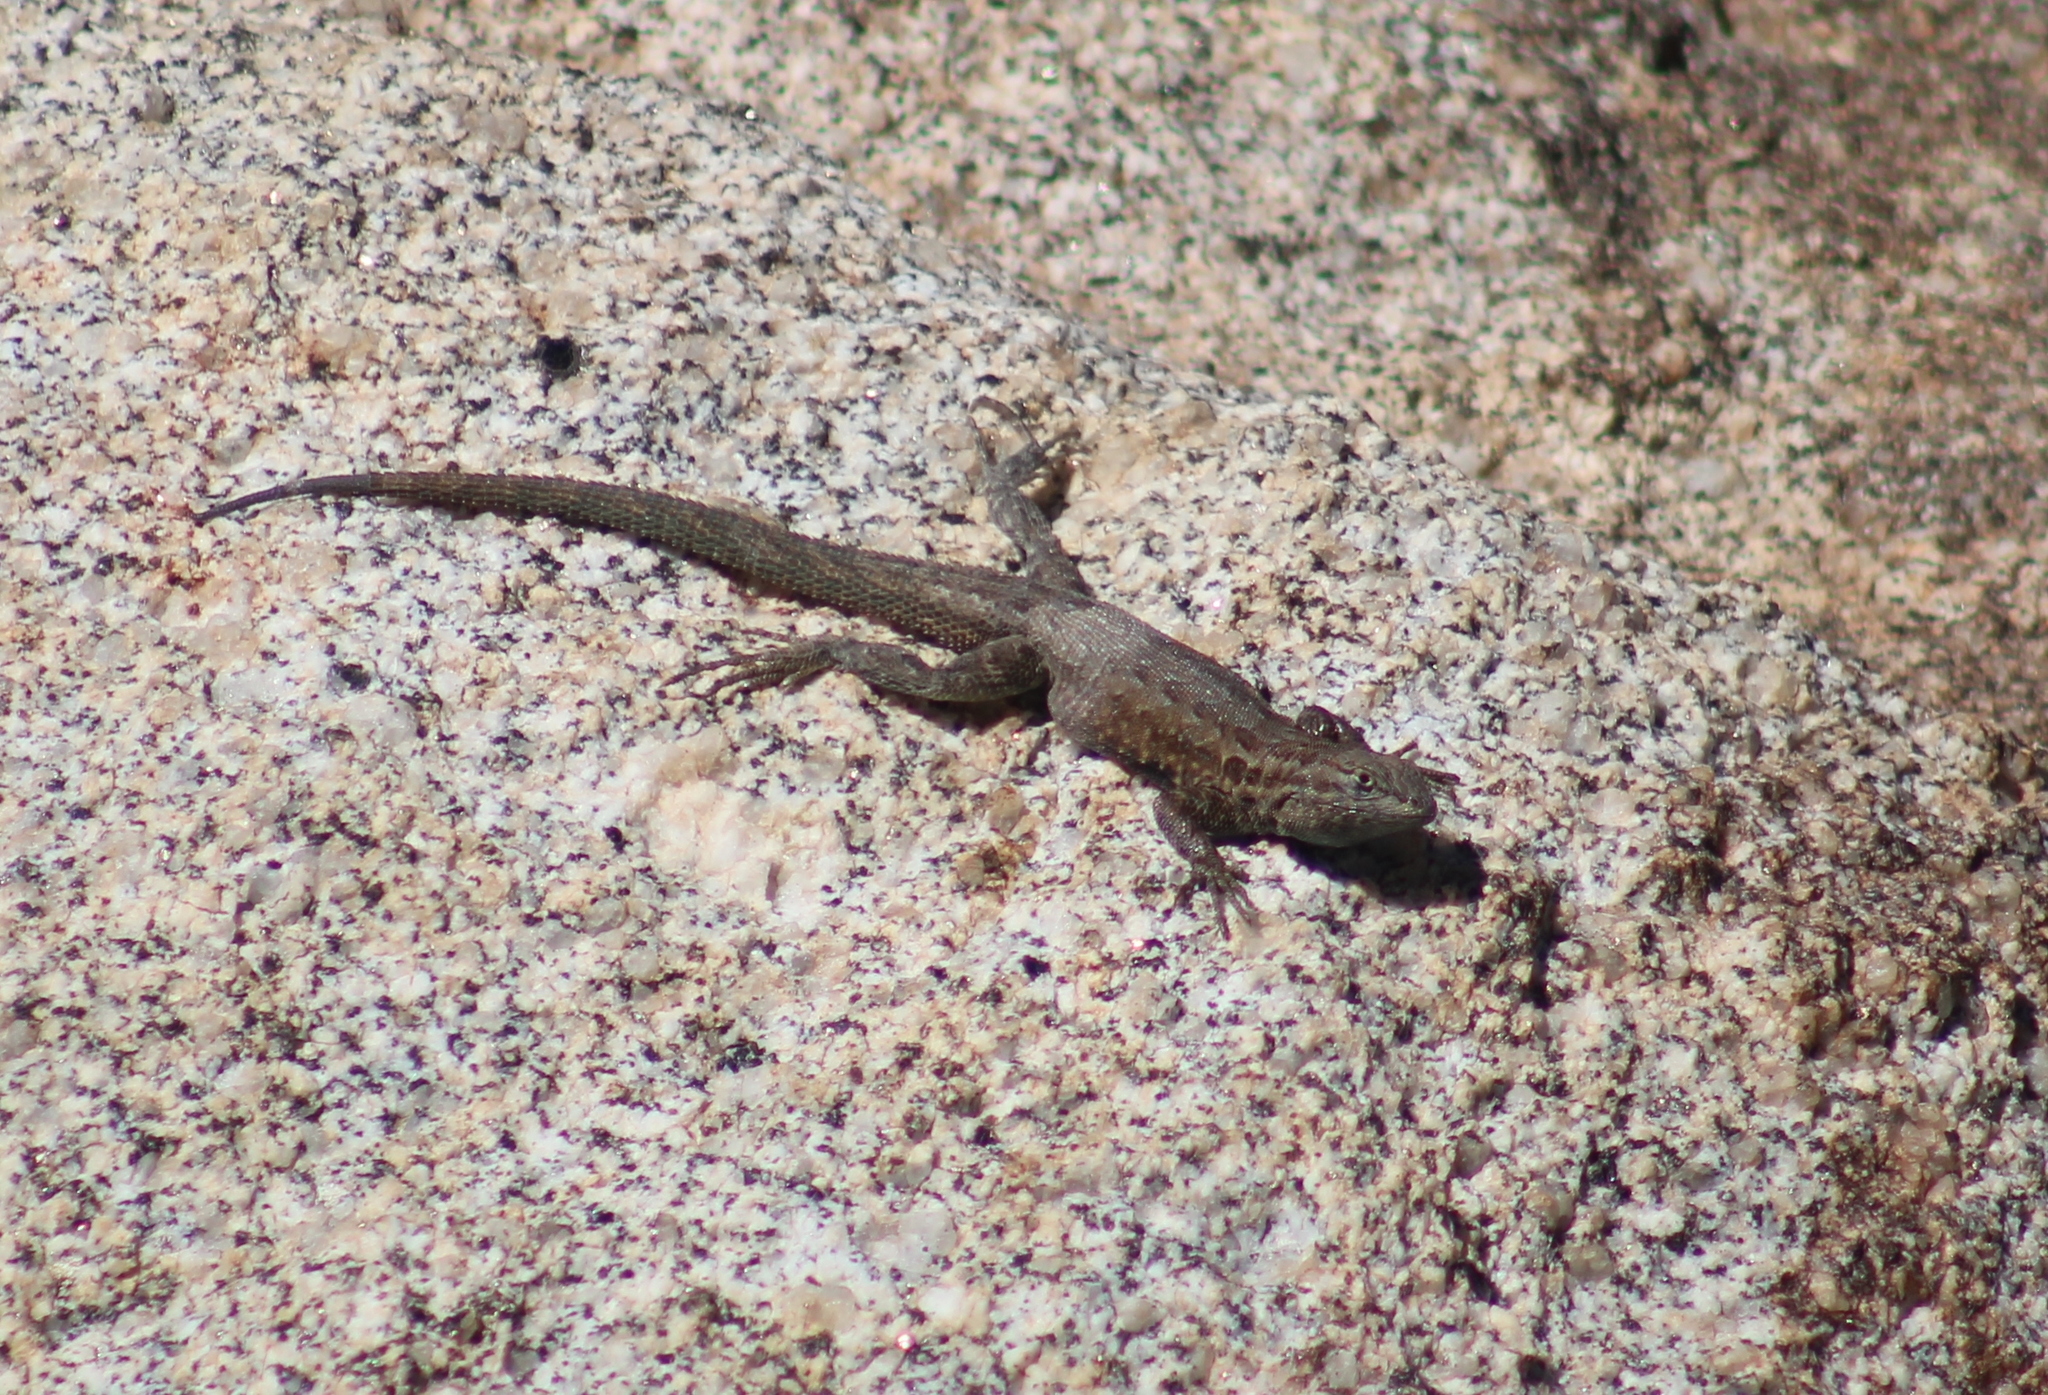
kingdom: Animalia
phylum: Chordata
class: Squamata
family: Phrynosomatidae
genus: Uta
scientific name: Uta stansburiana
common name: Side-blotched lizard
